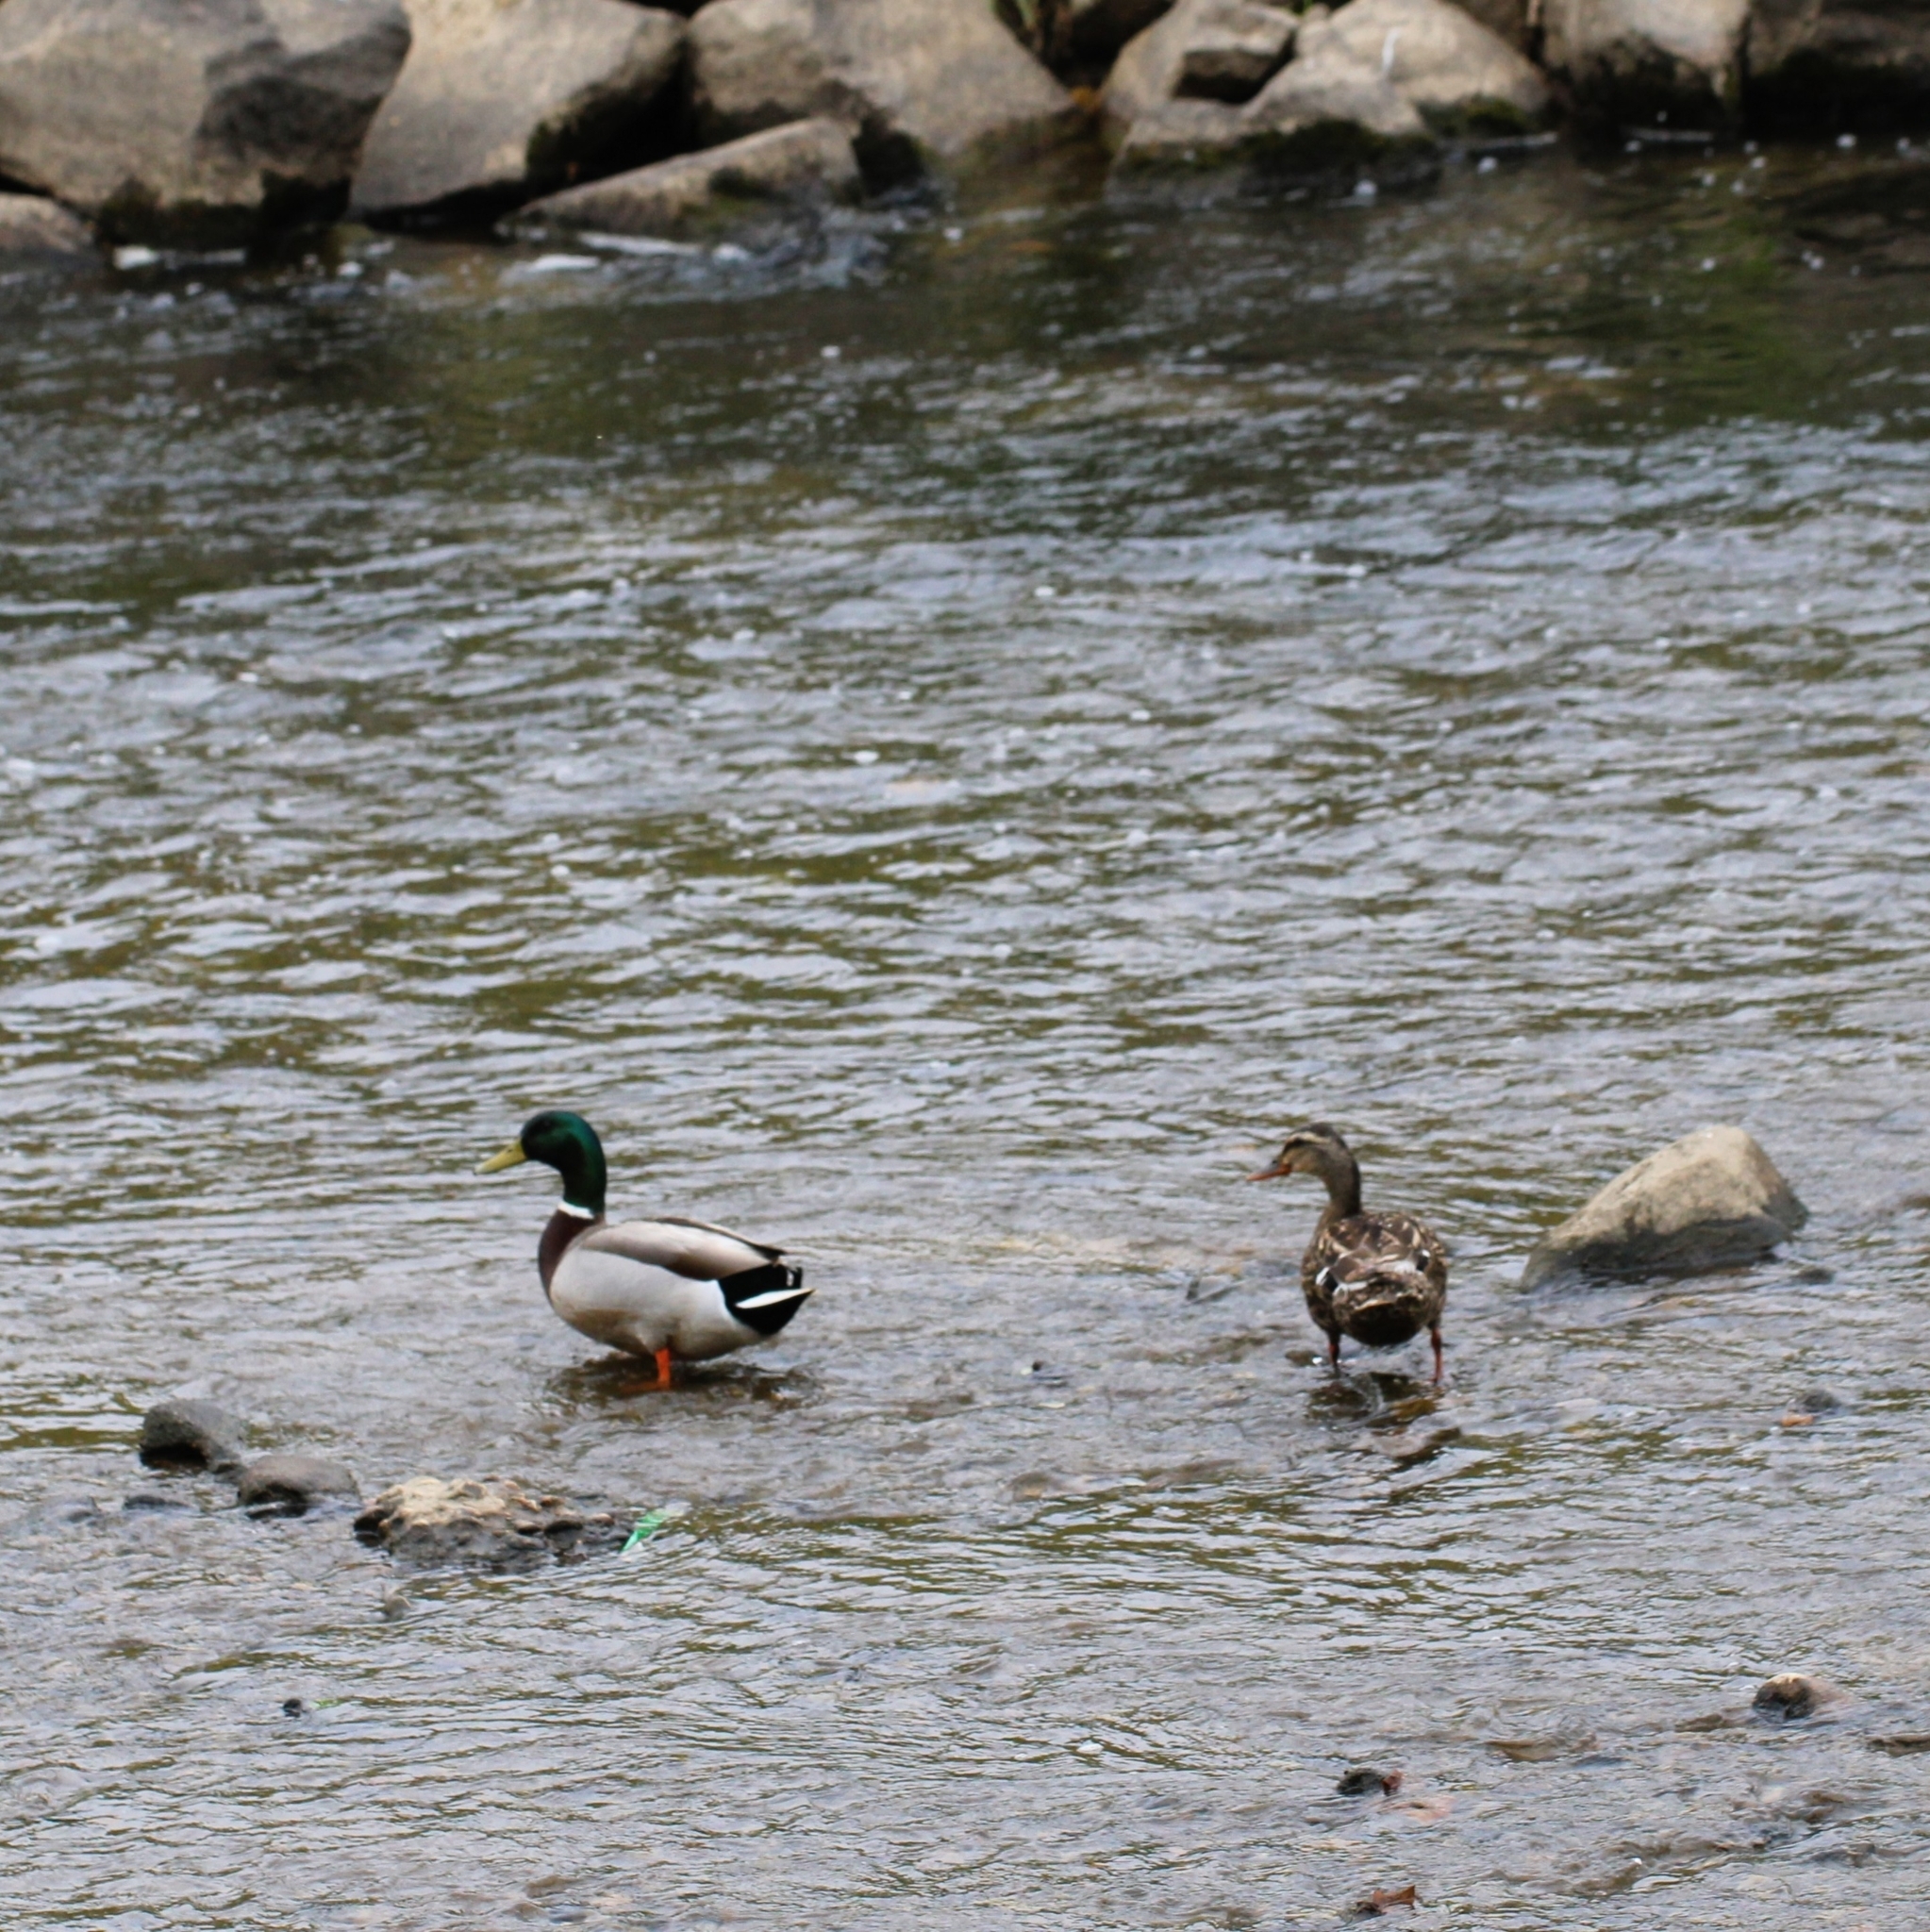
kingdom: Animalia
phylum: Chordata
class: Aves
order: Anseriformes
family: Anatidae
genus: Anas
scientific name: Anas platyrhynchos
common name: Mallard
